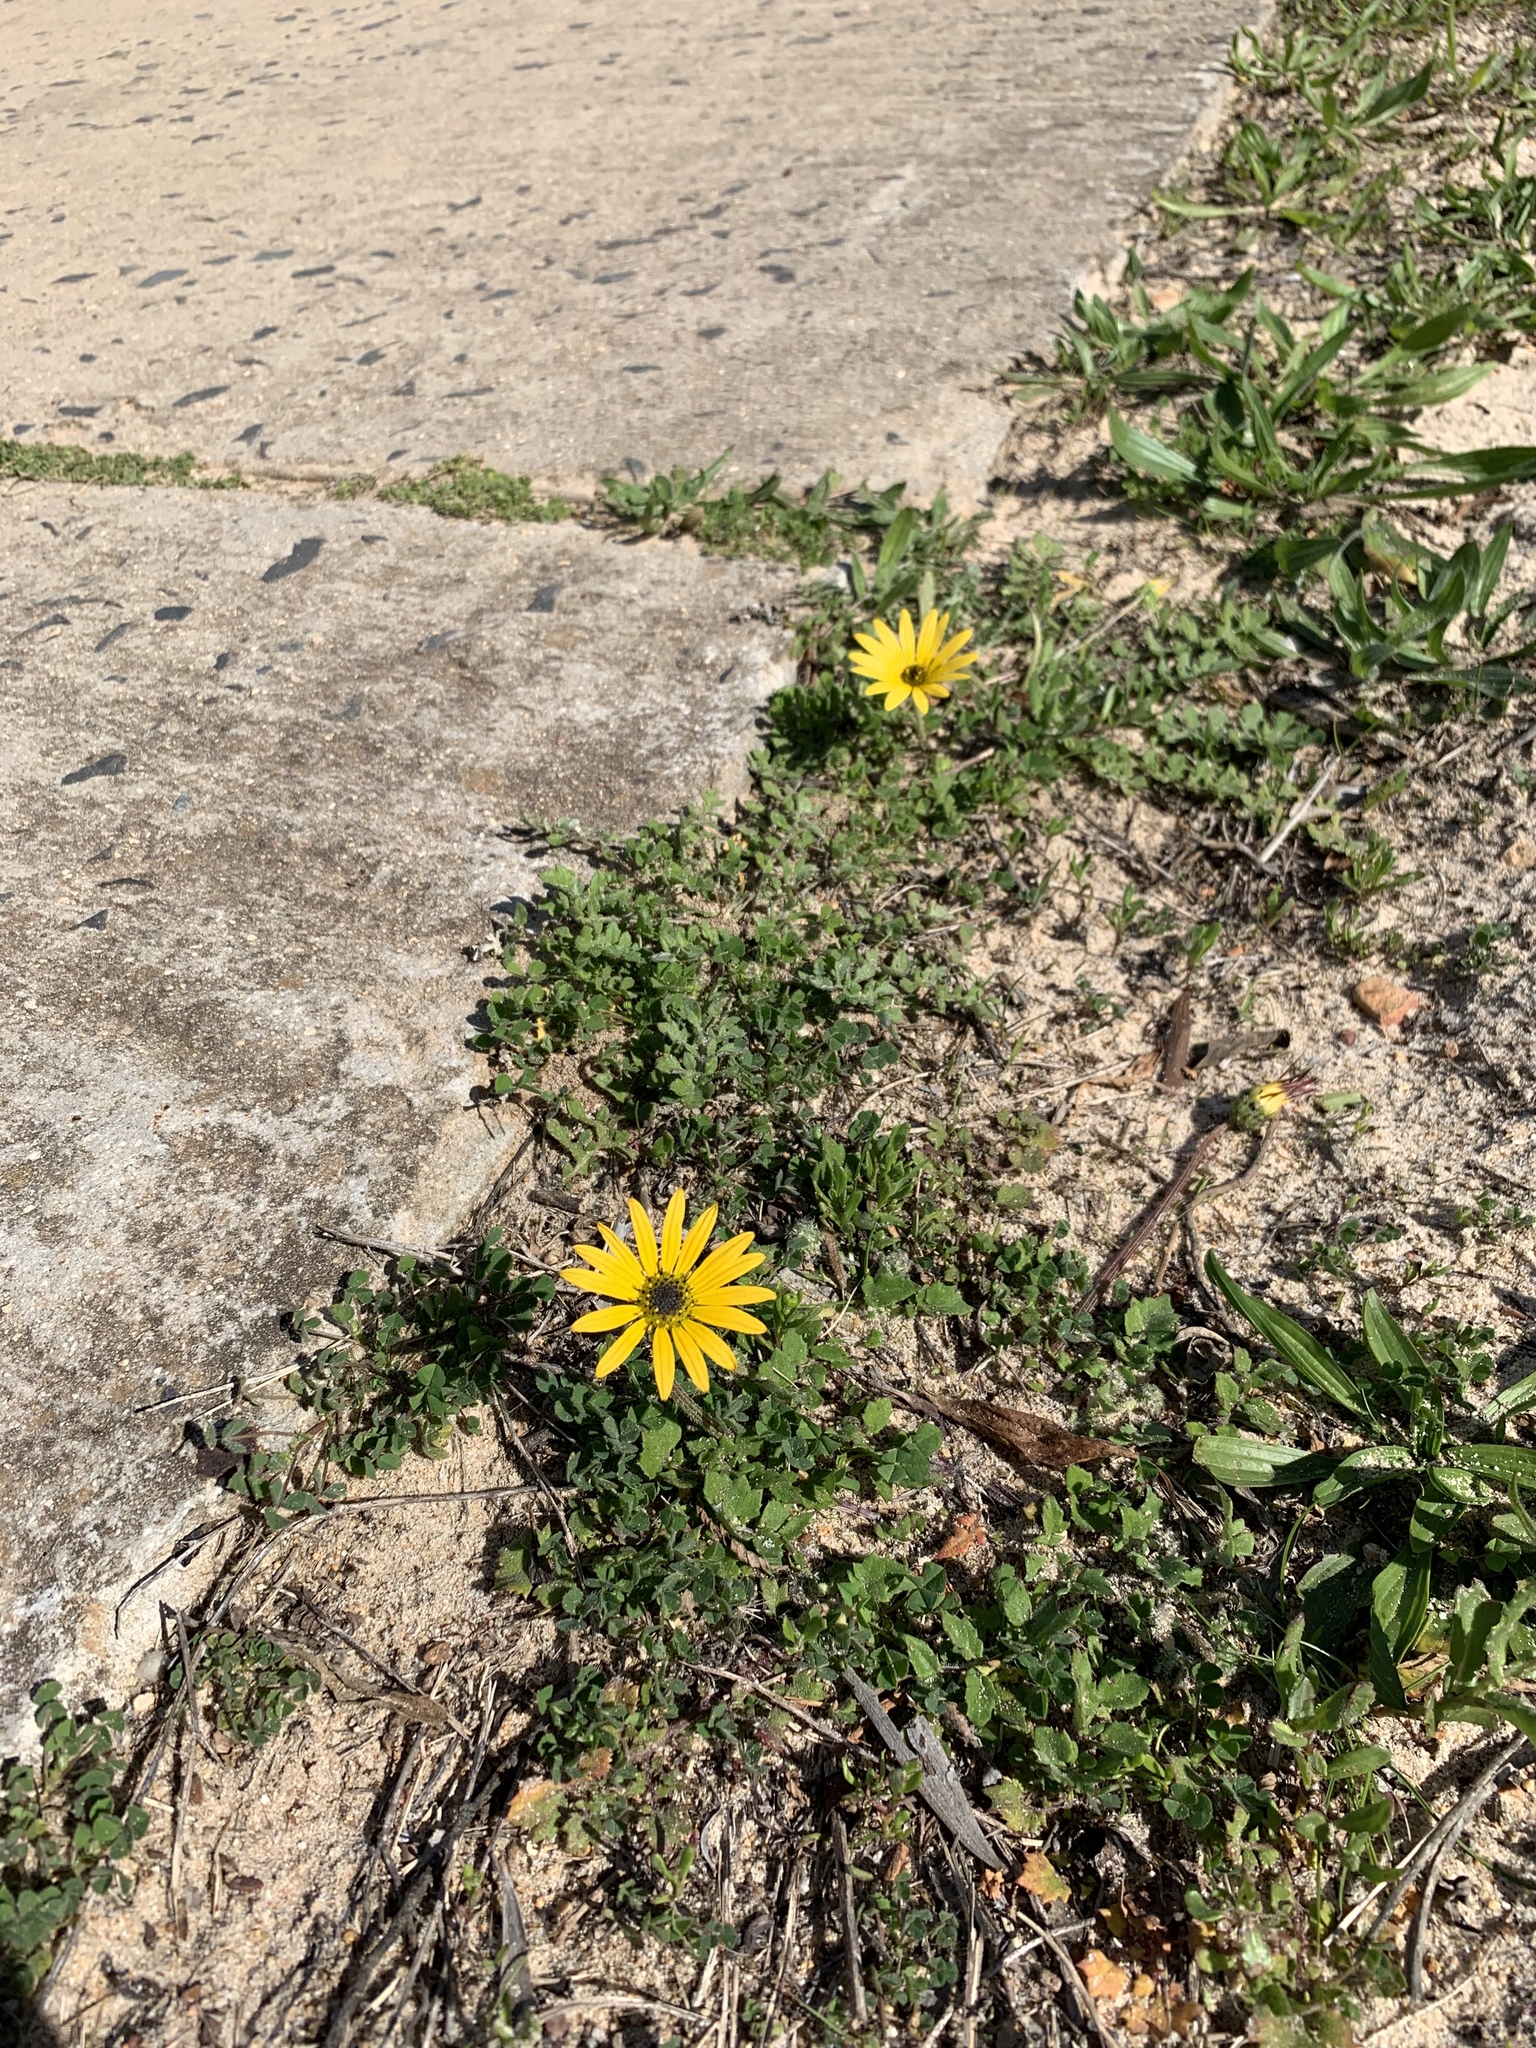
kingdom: Plantae
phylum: Tracheophyta
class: Magnoliopsida
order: Asterales
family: Asteraceae
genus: Arctotheca
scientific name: Arctotheca calendula
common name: Capeweed
